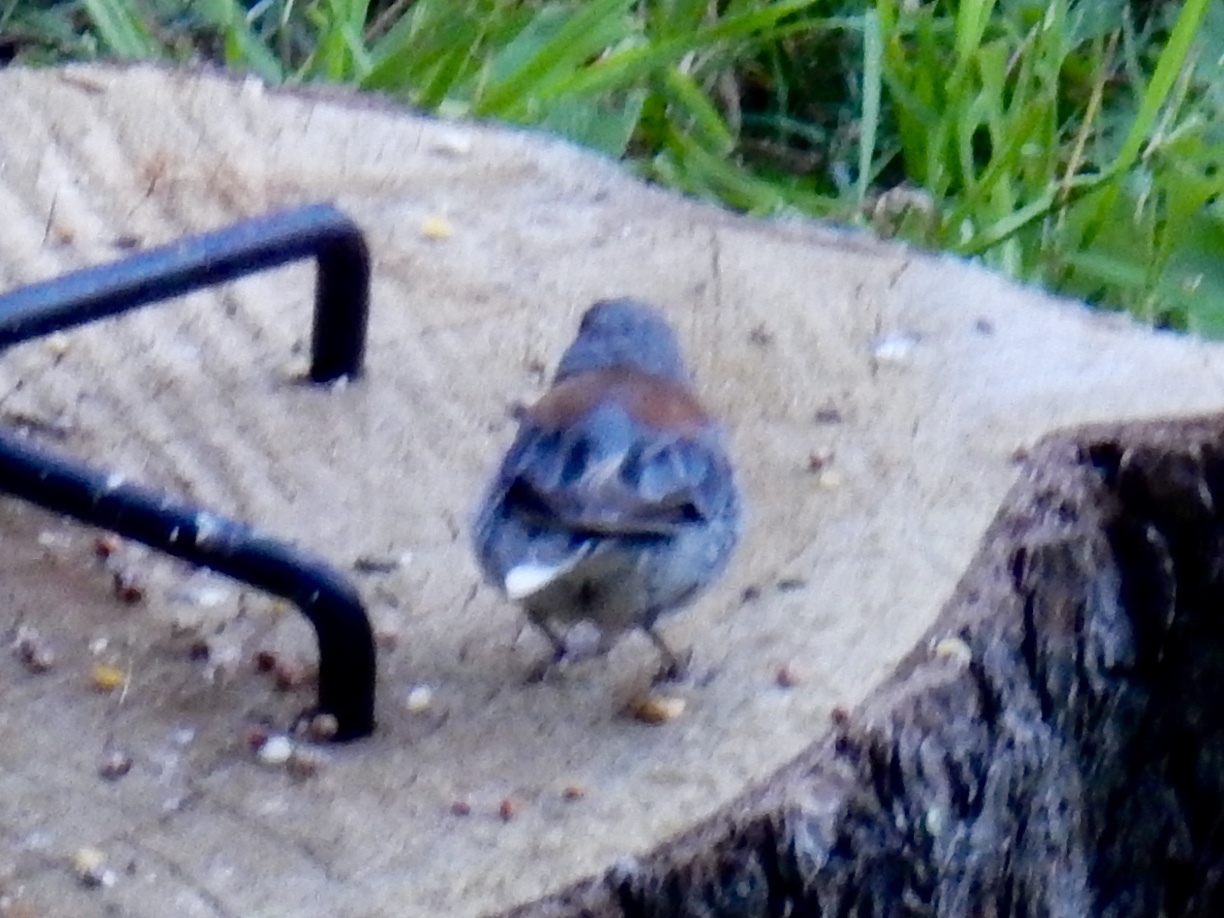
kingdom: Animalia
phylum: Chordata
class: Aves
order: Passeriformes
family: Passerellidae
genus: Junco
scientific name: Junco hyemalis
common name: Dark-eyed junco
